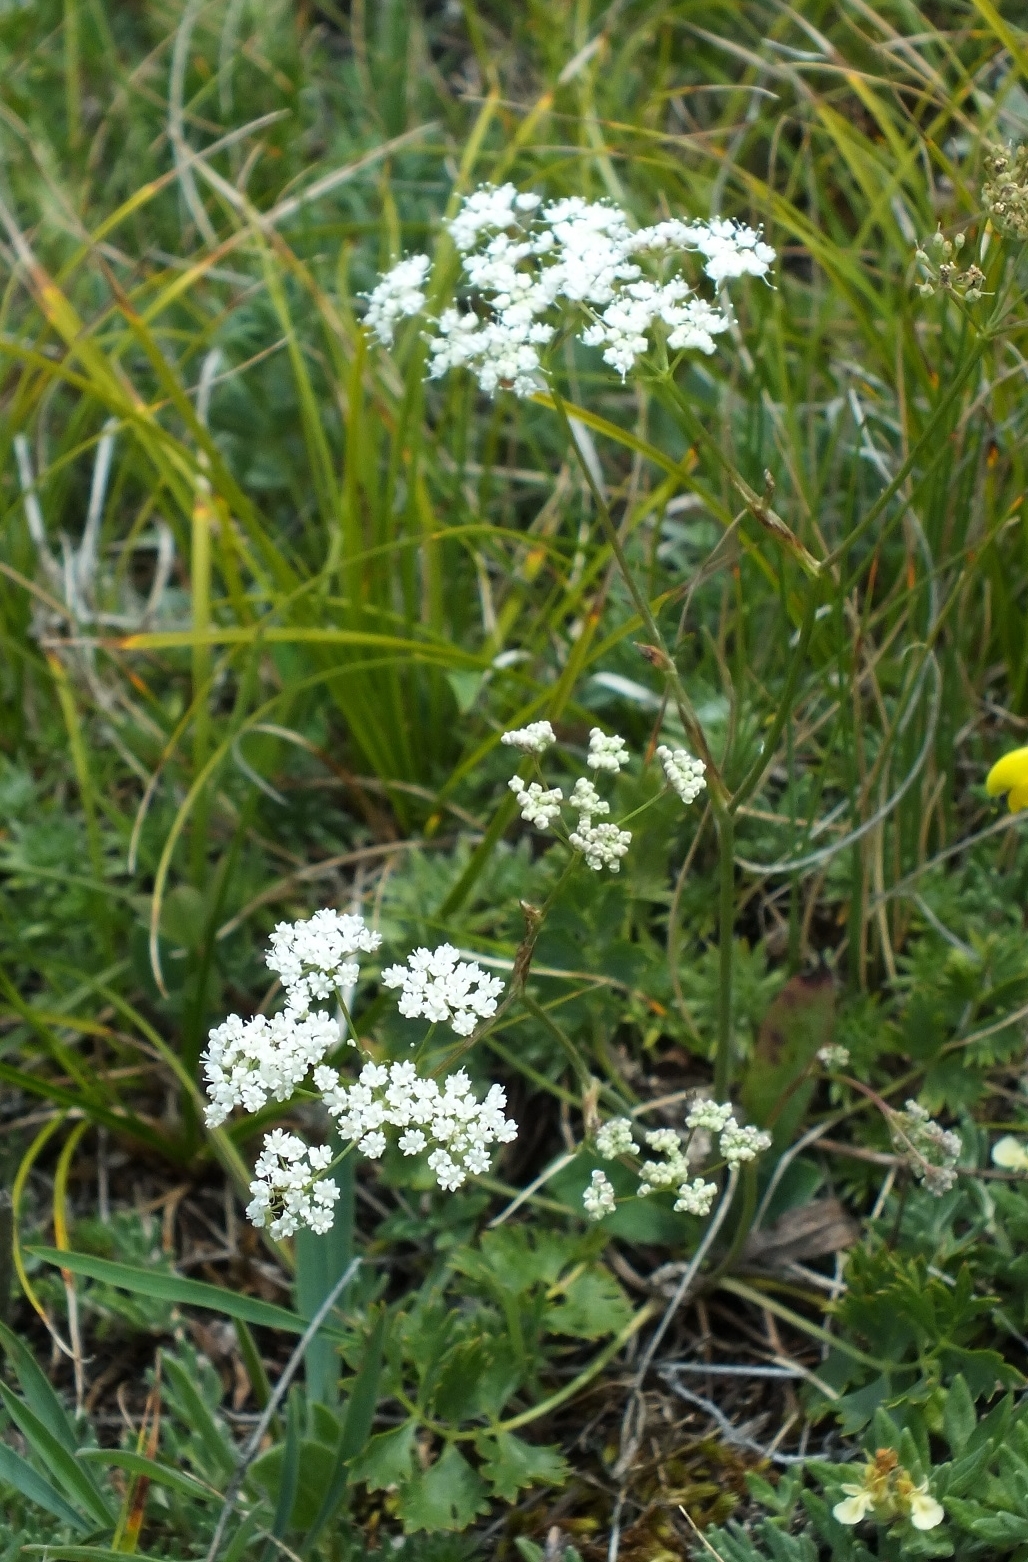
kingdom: Plantae
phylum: Tracheophyta
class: Magnoliopsida
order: Apiales
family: Apiaceae
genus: Pimpinella
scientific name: Pimpinella tragium
